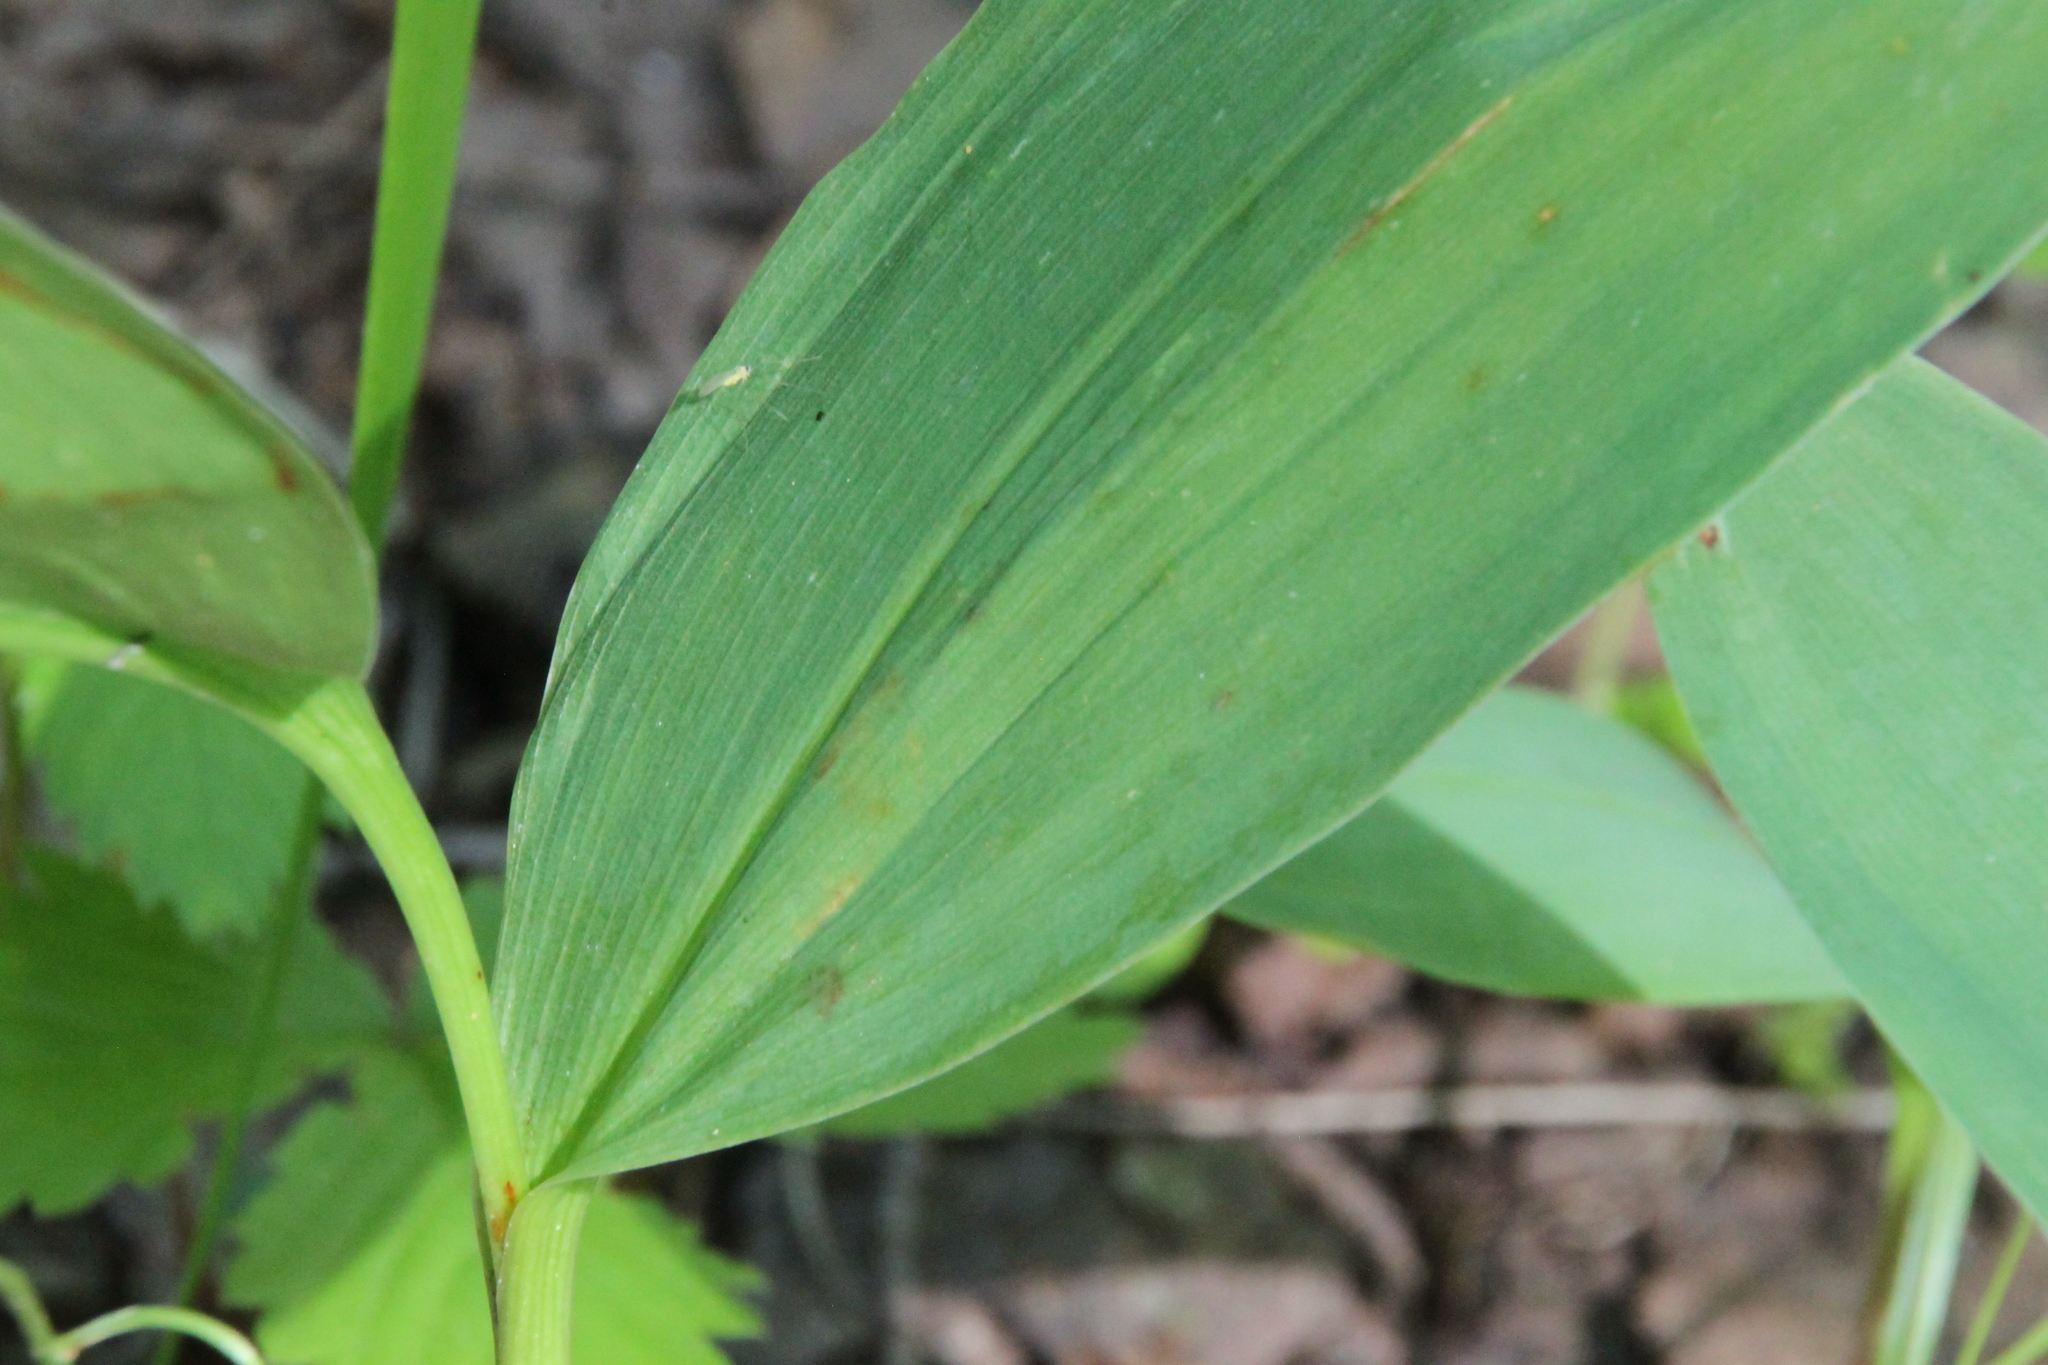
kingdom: Plantae
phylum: Tracheophyta
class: Liliopsida
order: Asparagales
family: Asparagaceae
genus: Convallaria
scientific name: Convallaria majalis
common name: Lily-of-the-valley
